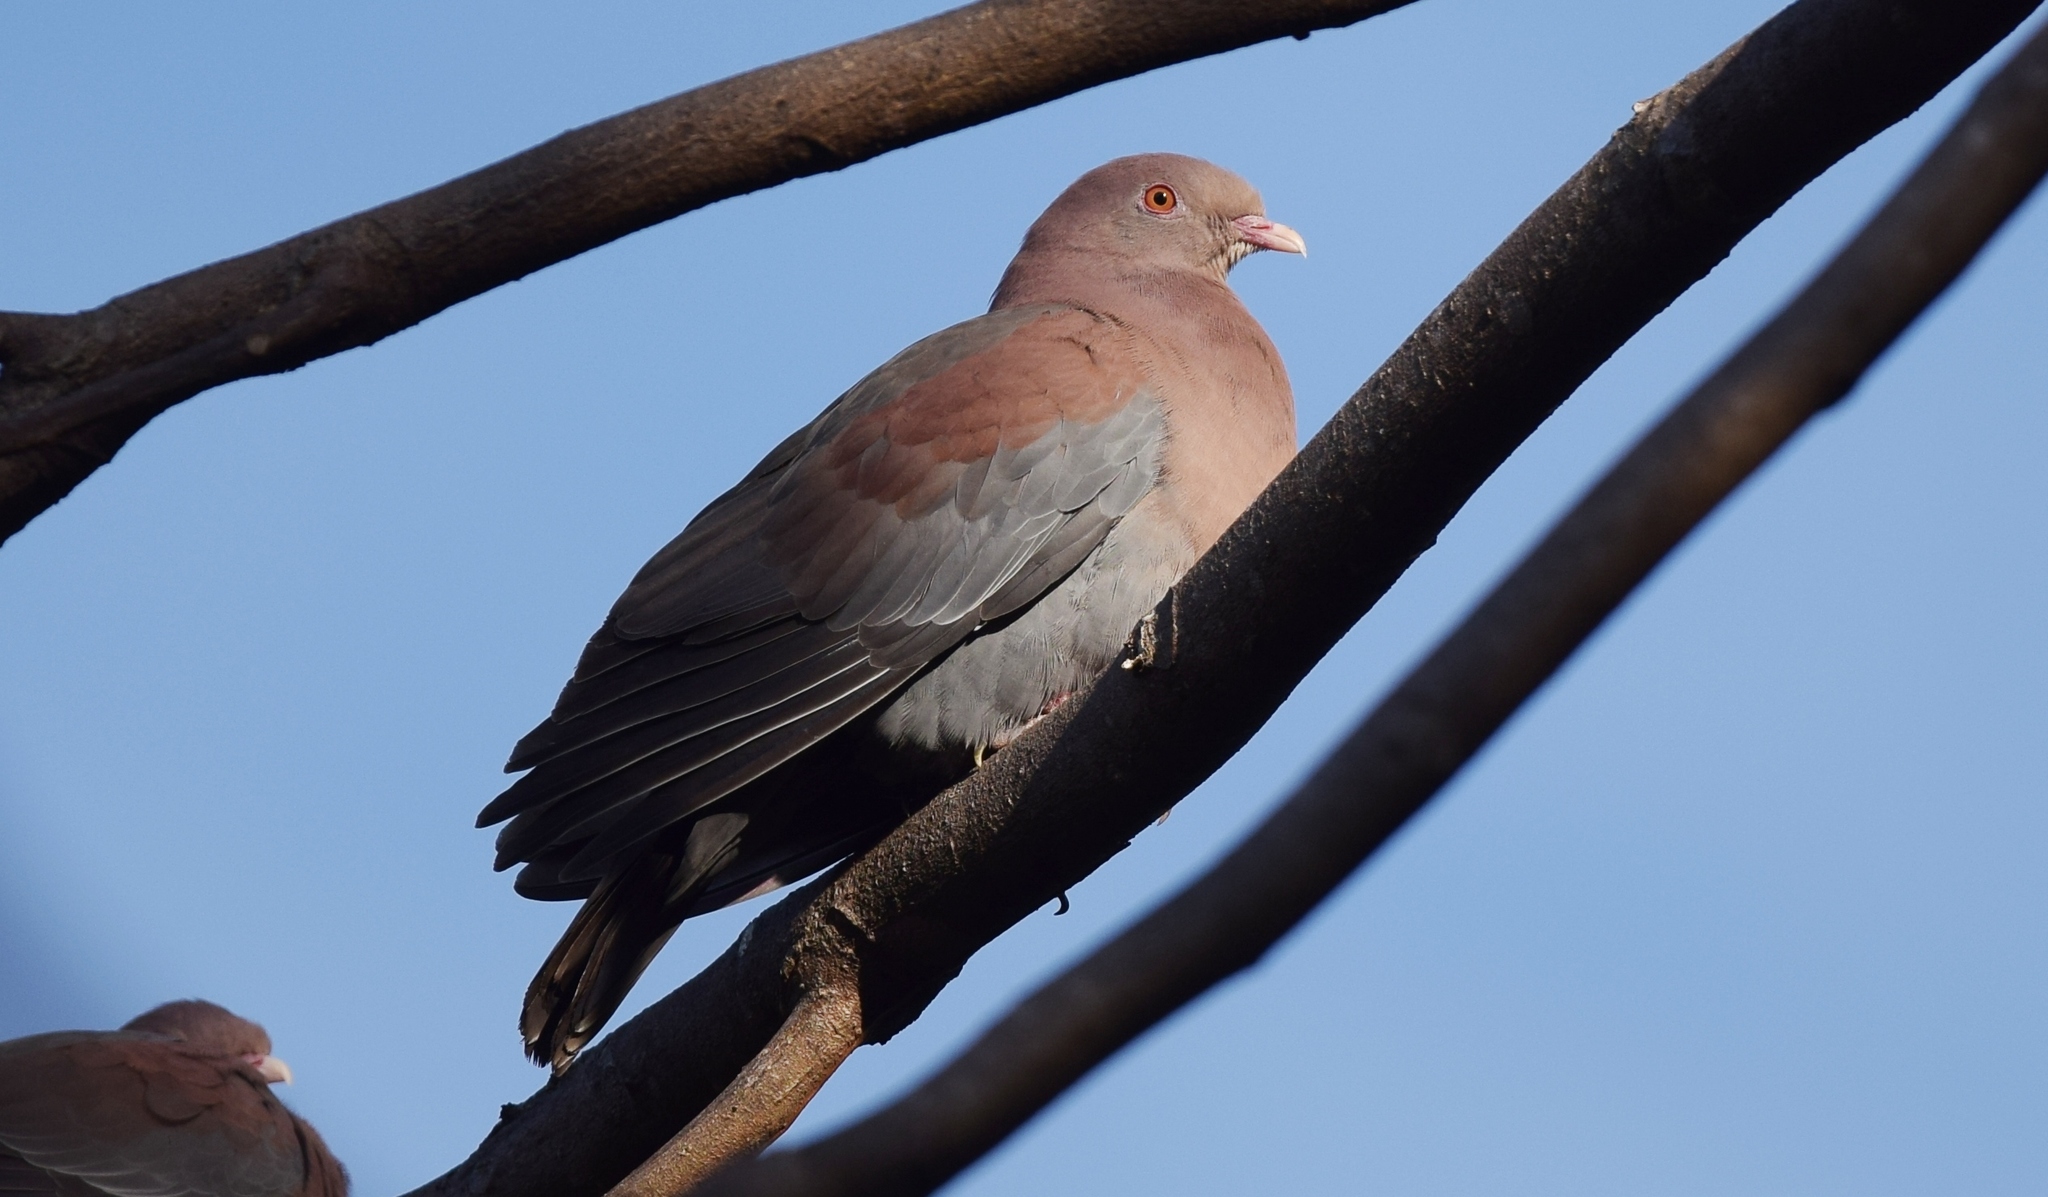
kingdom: Animalia
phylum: Chordata
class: Aves
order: Columbiformes
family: Columbidae
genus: Patagioenas
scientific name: Patagioenas flavirostris
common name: Red-billed pigeon
